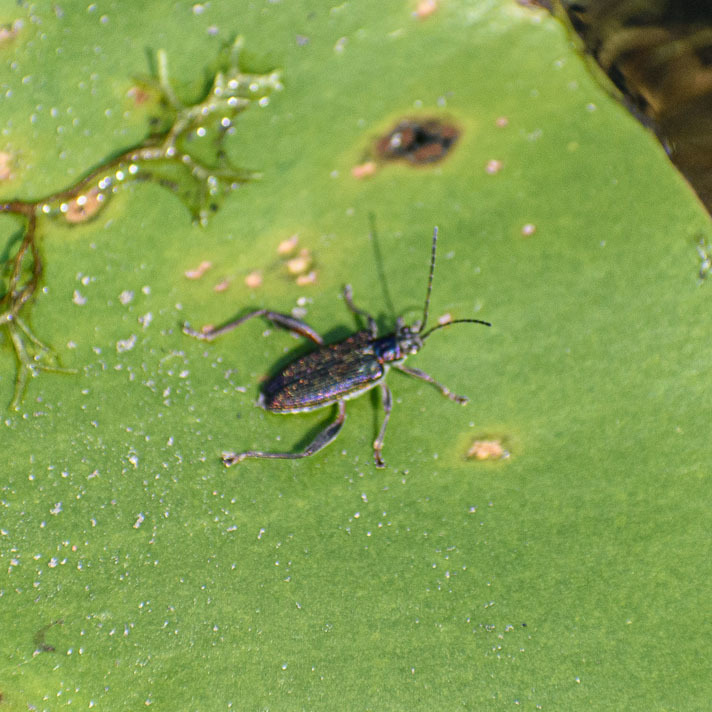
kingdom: Animalia
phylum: Arthropoda
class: Insecta
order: Coleoptera
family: Chrysomelidae
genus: Donacia
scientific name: Donacia crassipes
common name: Water-lily reed beetle
